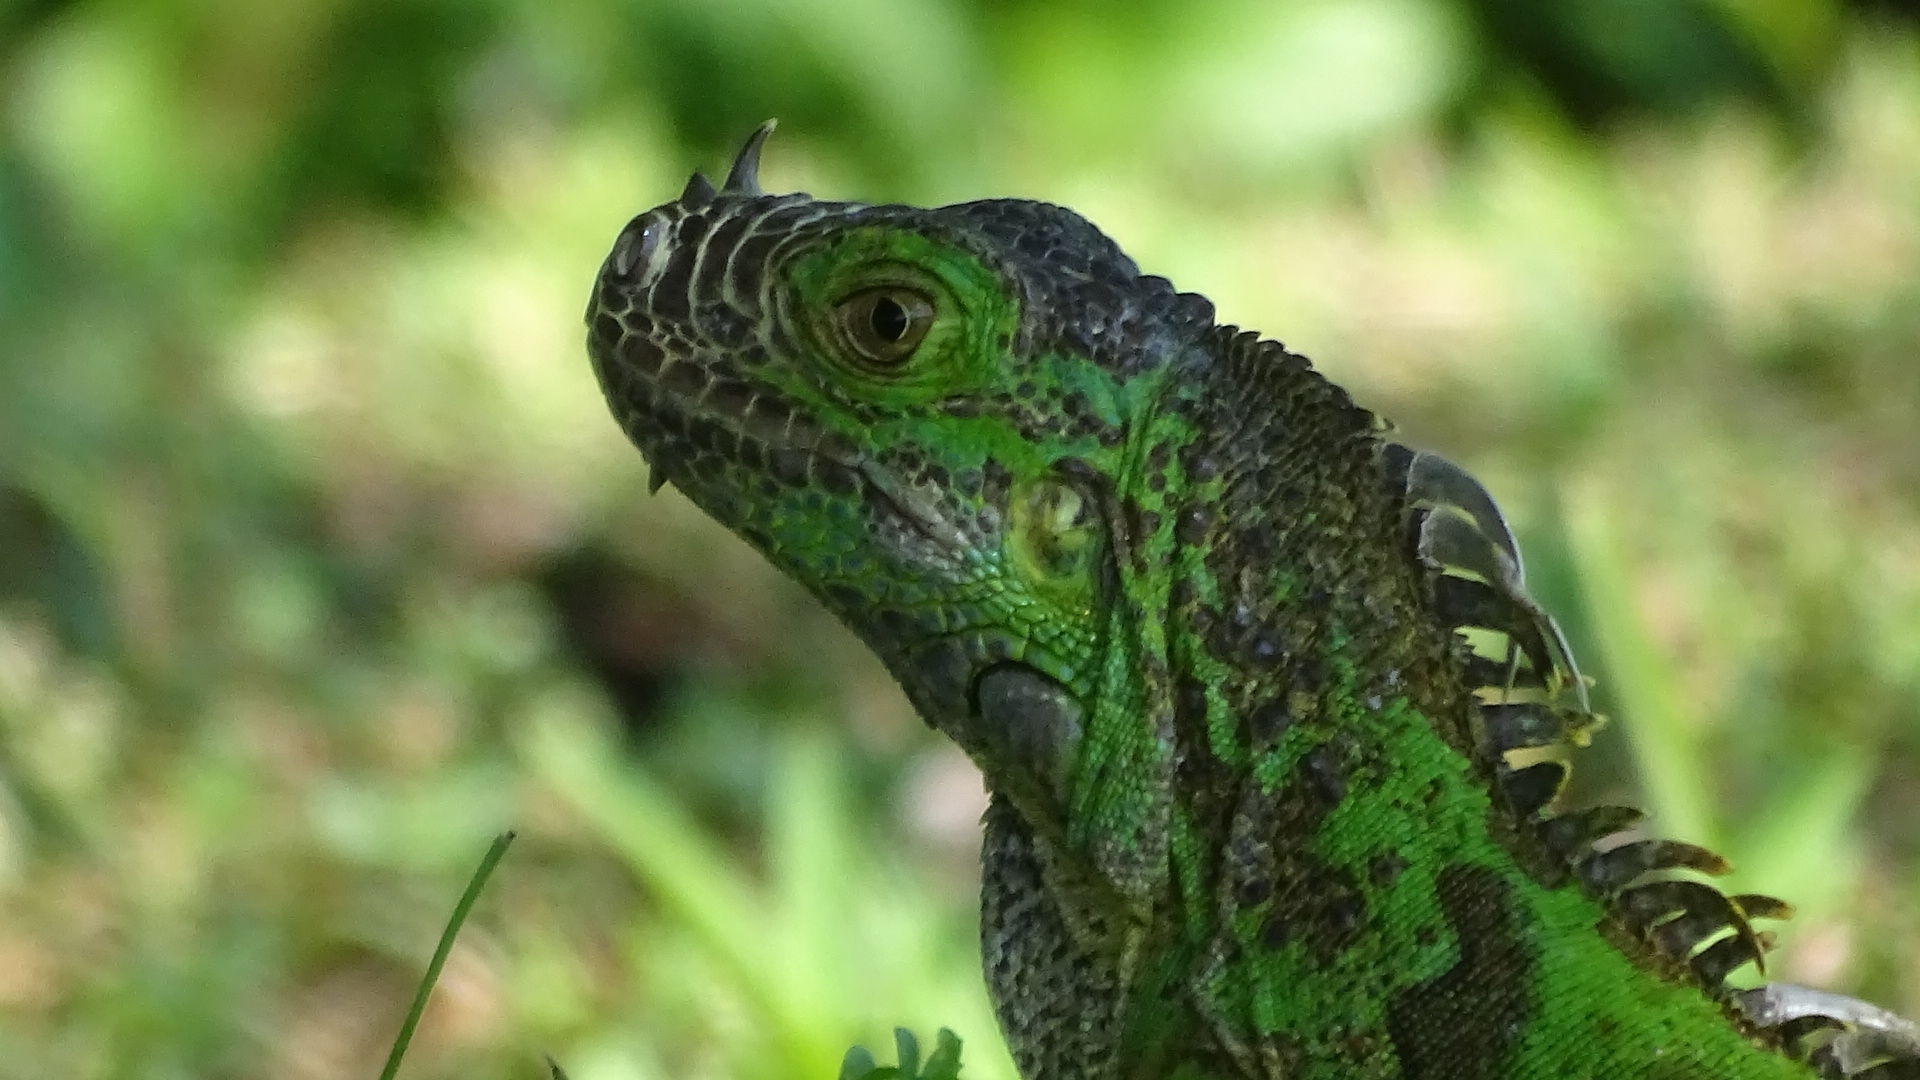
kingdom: Animalia
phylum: Chordata
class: Squamata
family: Iguanidae
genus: Iguana
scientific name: Iguana iguana
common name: Green iguana
